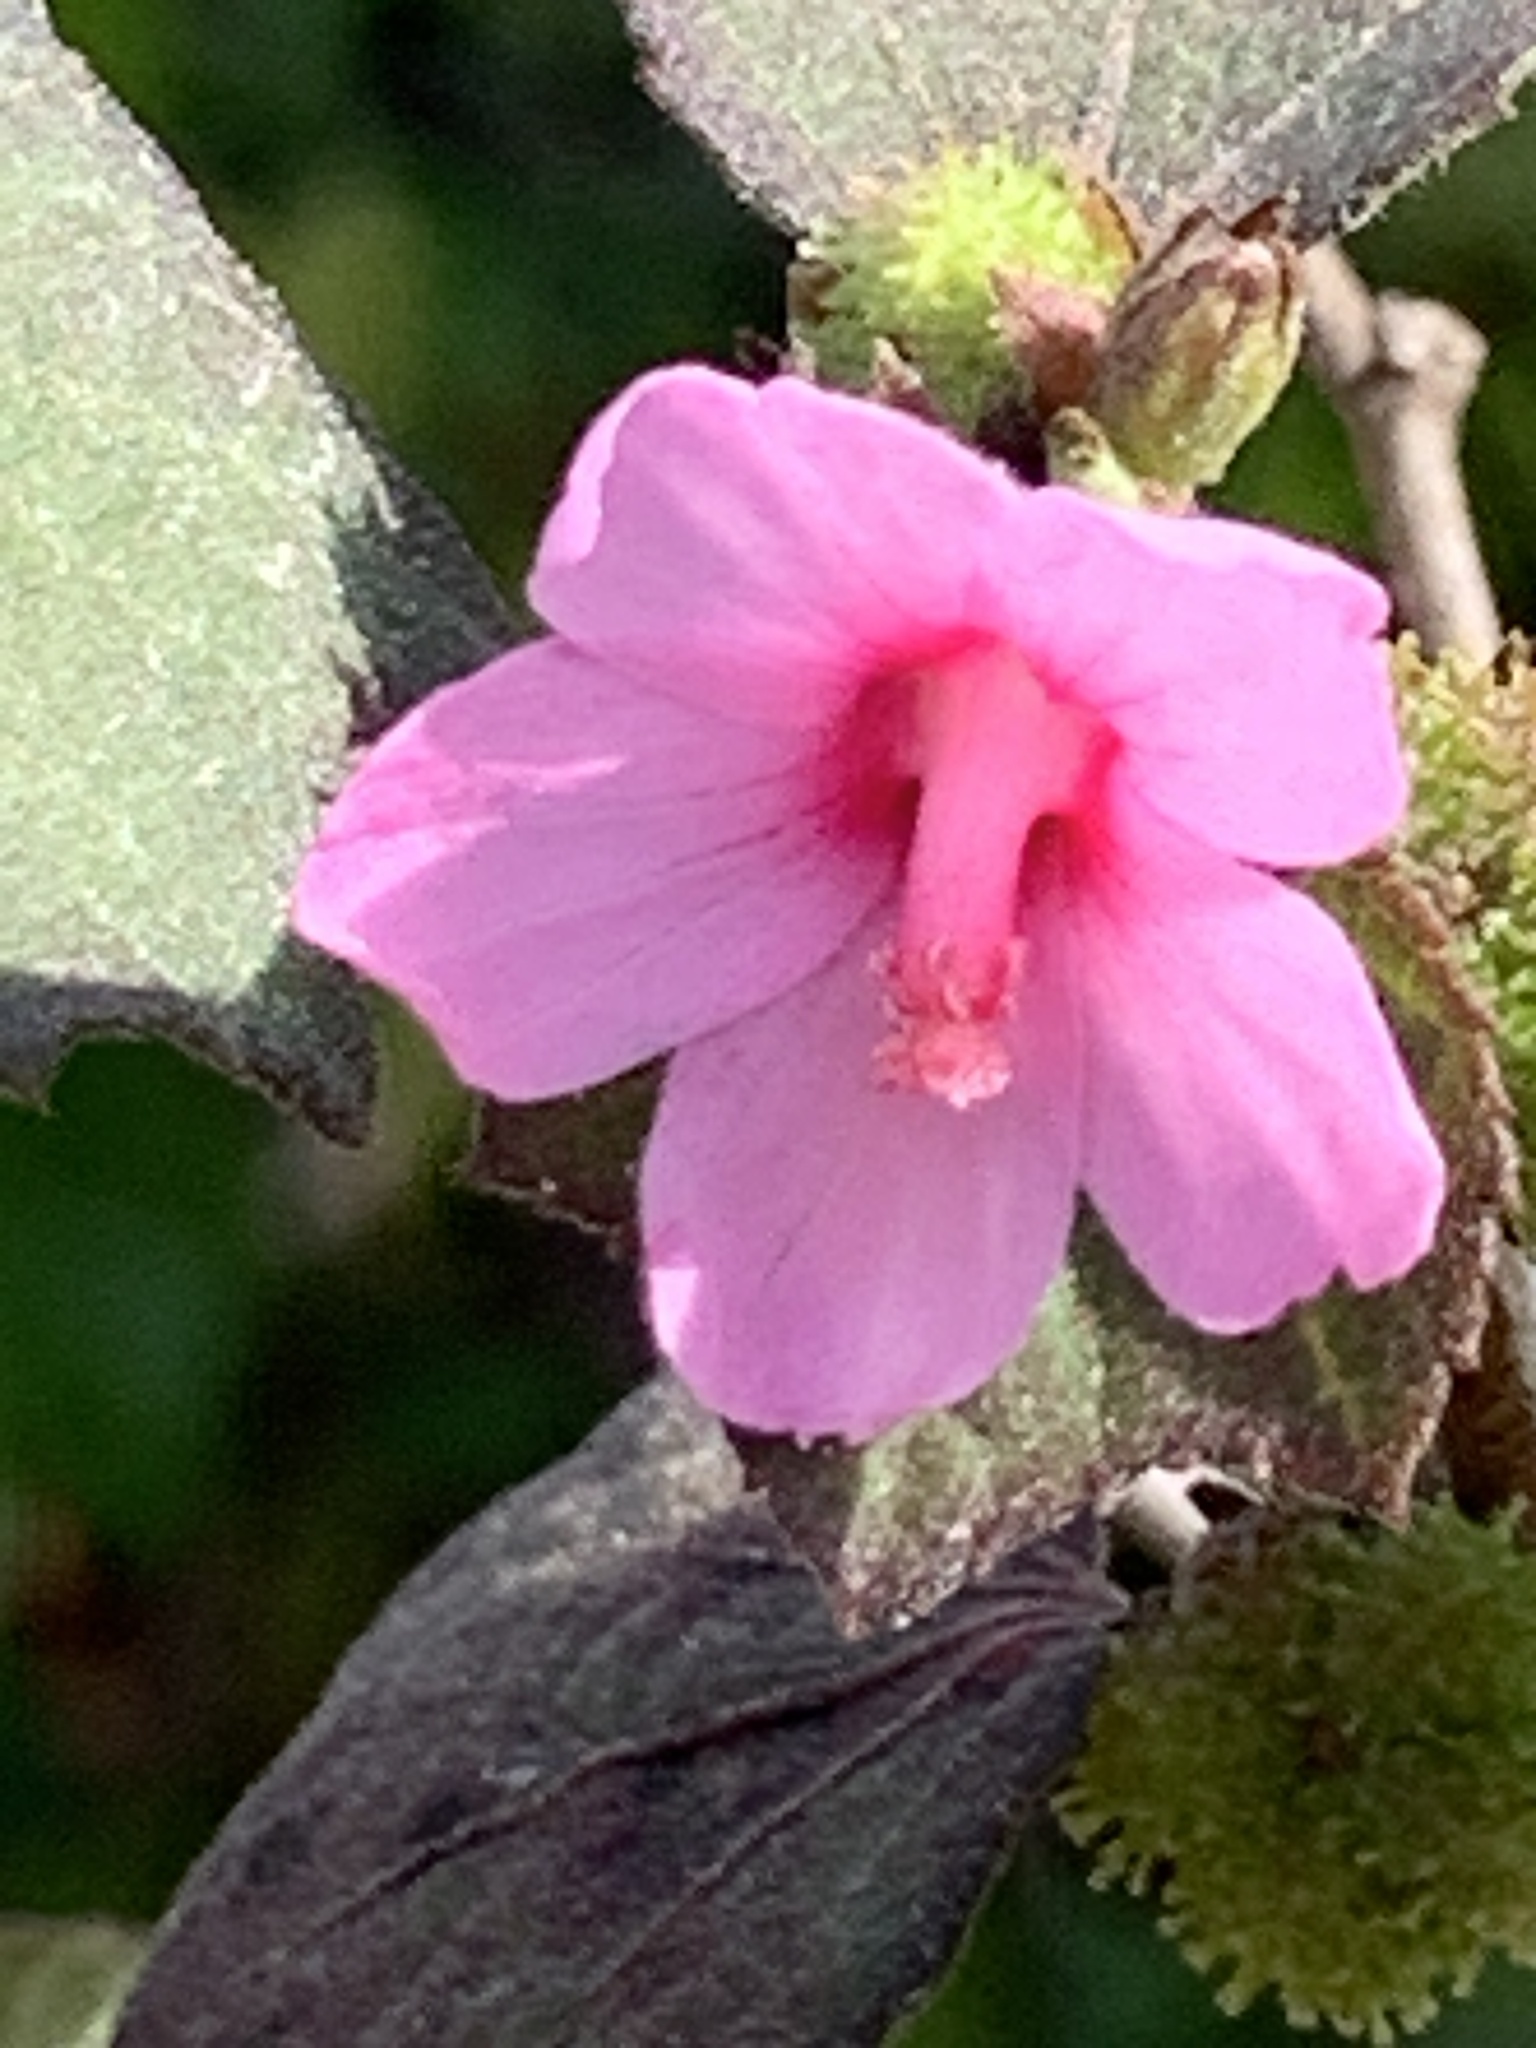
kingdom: Plantae
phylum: Tracheophyta
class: Magnoliopsida
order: Malvales
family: Malvaceae
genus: Urena
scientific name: Urena lobata
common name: Caesarweed
